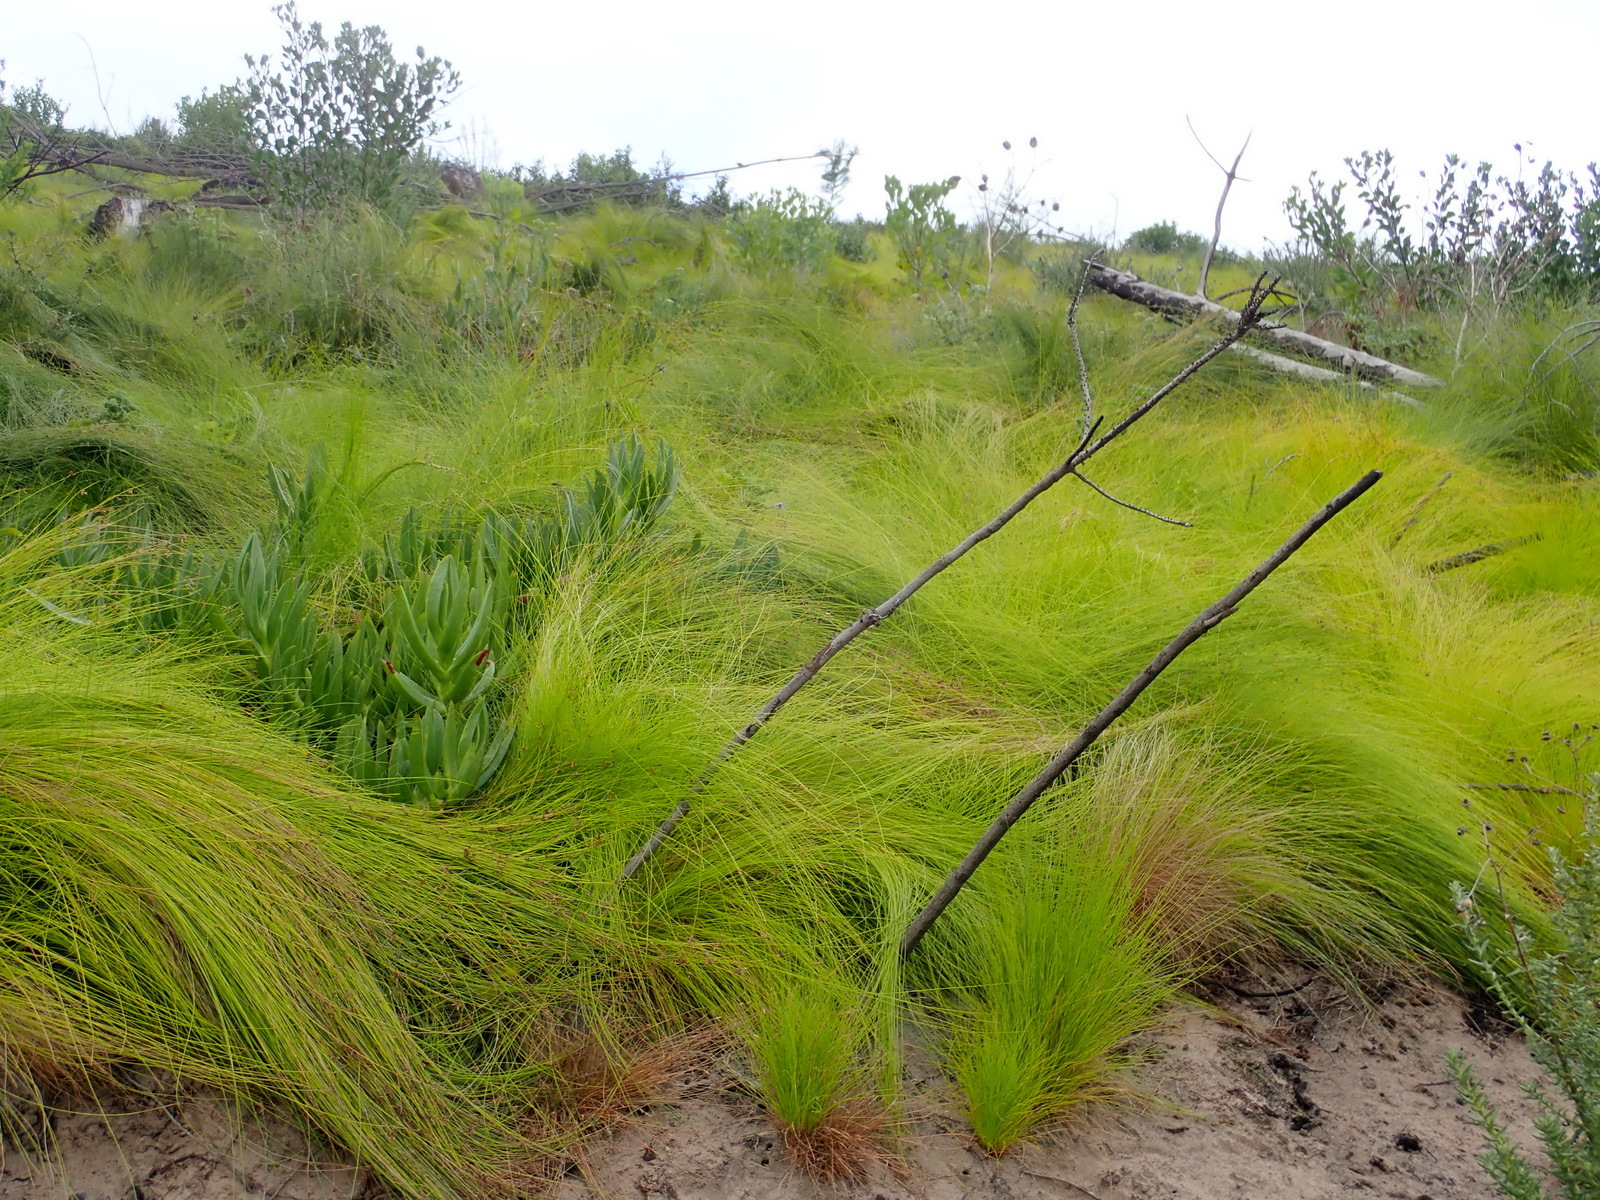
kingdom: Plantae
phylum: Tracheophyta
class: Liliopsida
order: Poales
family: Cyperaceae
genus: Ficinia
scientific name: Ficinia acuminata
